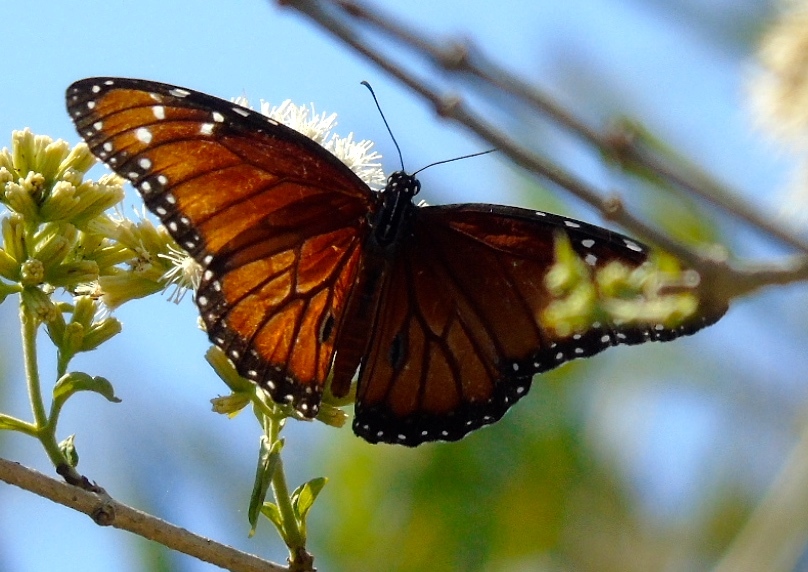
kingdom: Animalia
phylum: Arthropoda
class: Insecta
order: Lepidoptera
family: Nymphalidae
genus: Danaus
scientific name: Danaus eresimus
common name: Soldier
